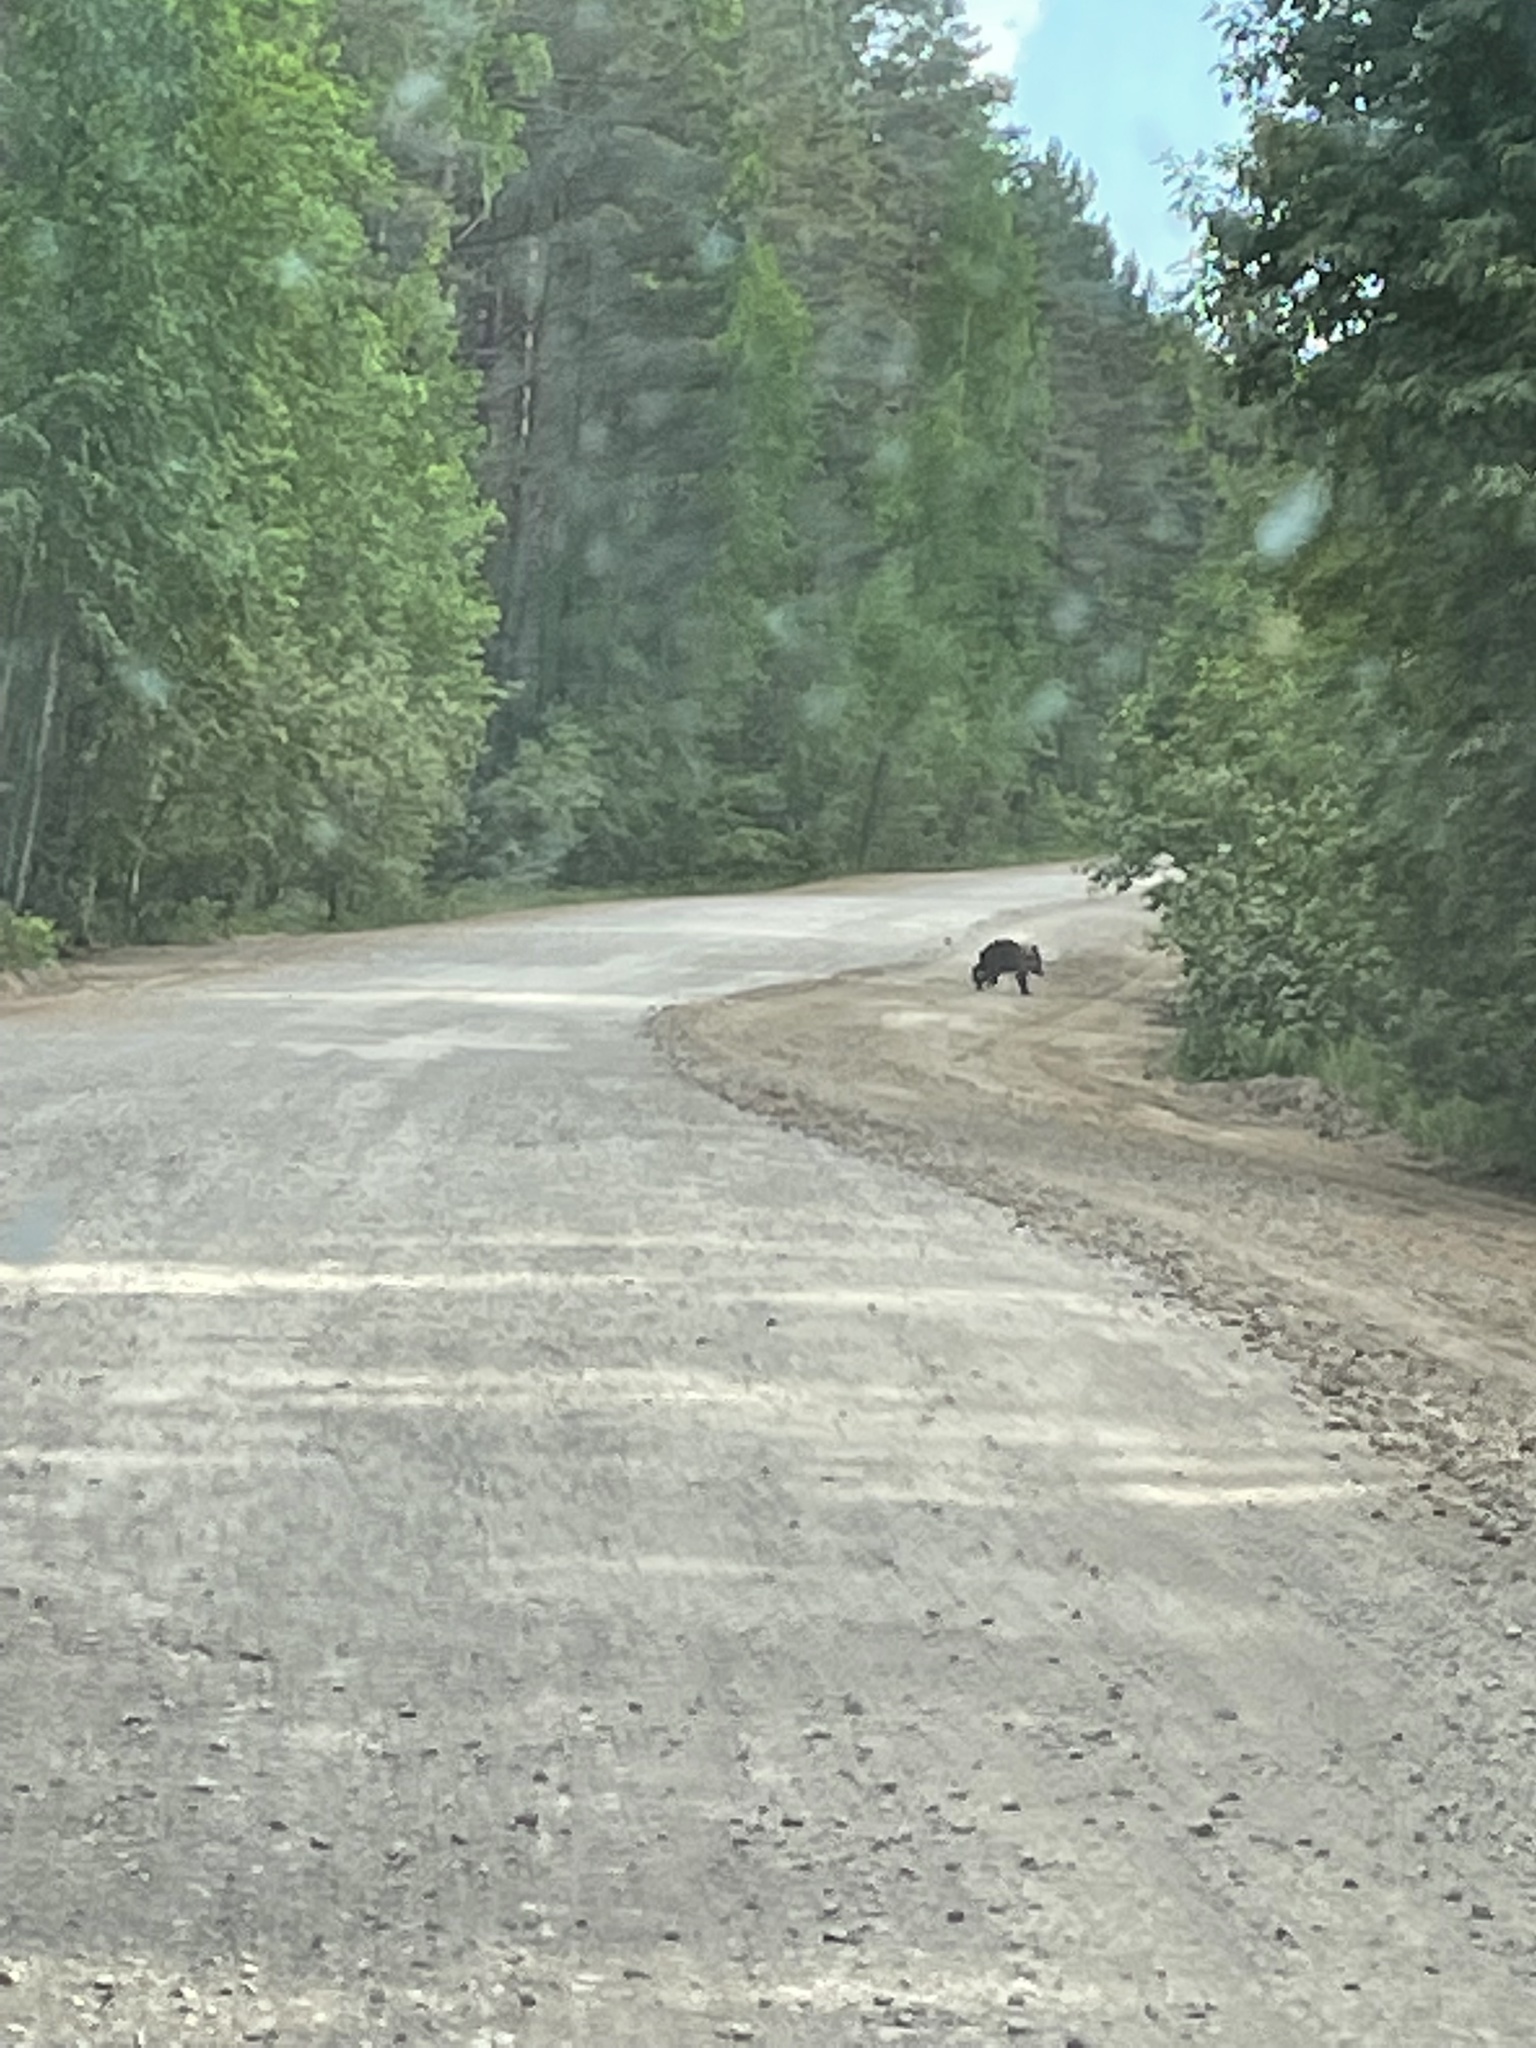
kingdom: Animalia
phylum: Chordata
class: Mammalia
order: Carnivora
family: Ursidae
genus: Ursus
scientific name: Ursus arctos
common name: Brown bear
